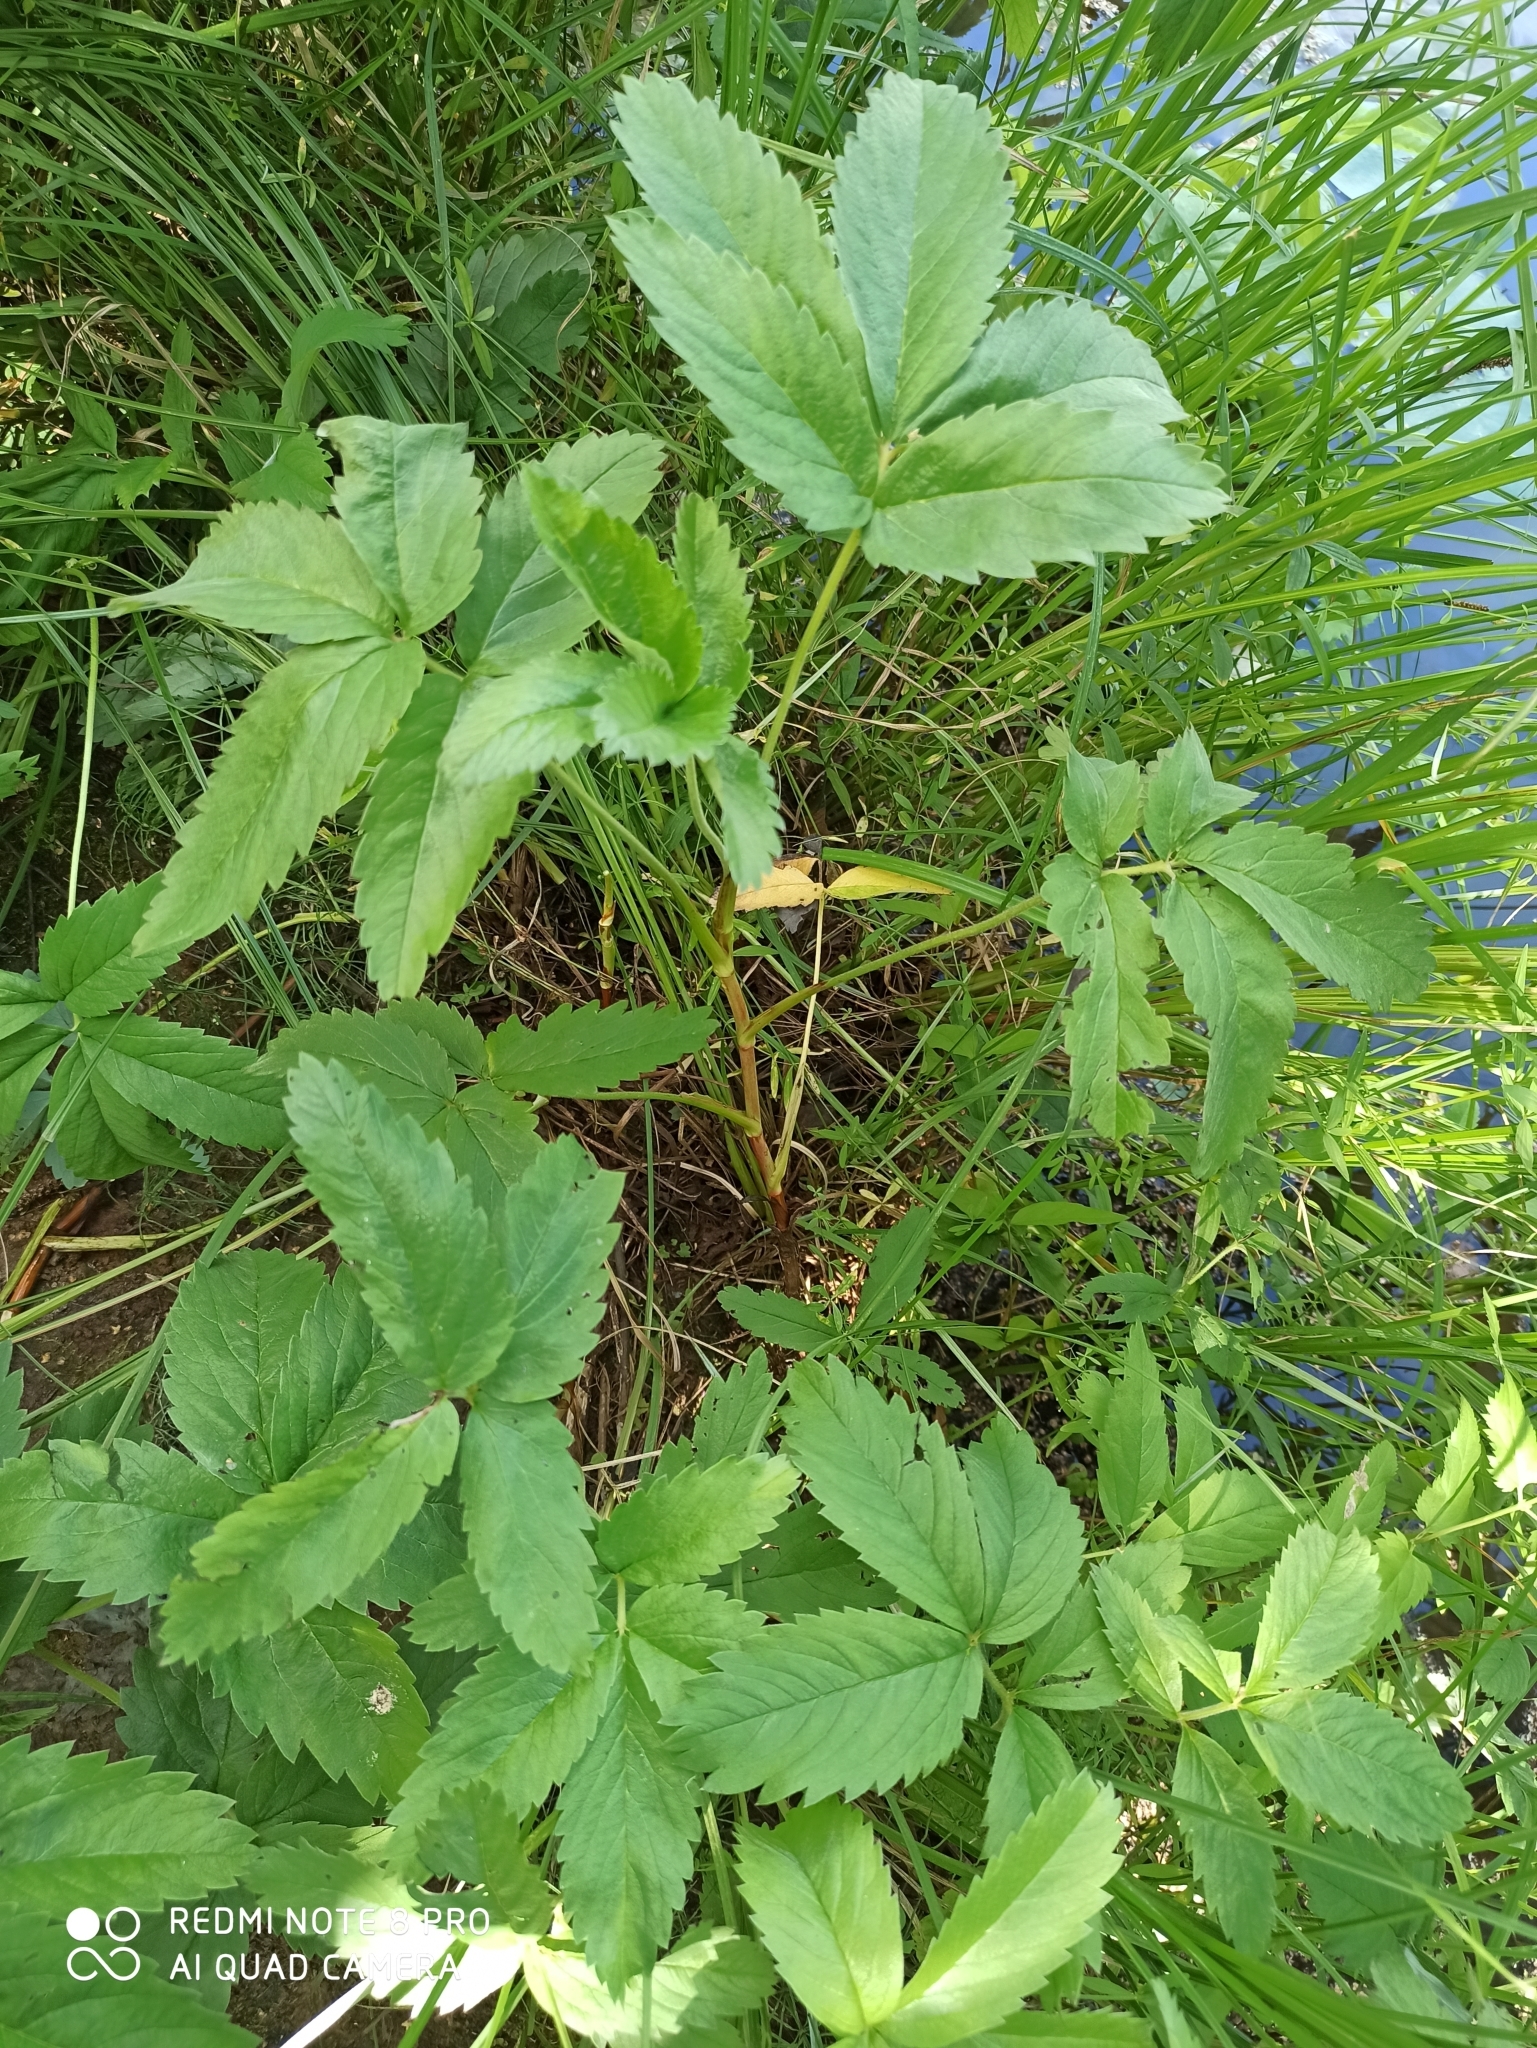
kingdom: Plantae
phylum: Tracheophyta
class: Magnoliopsida
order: Rosales
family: Rosaceae
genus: Comarum
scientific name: Comarum palustre
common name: Marsh cinquefoil
